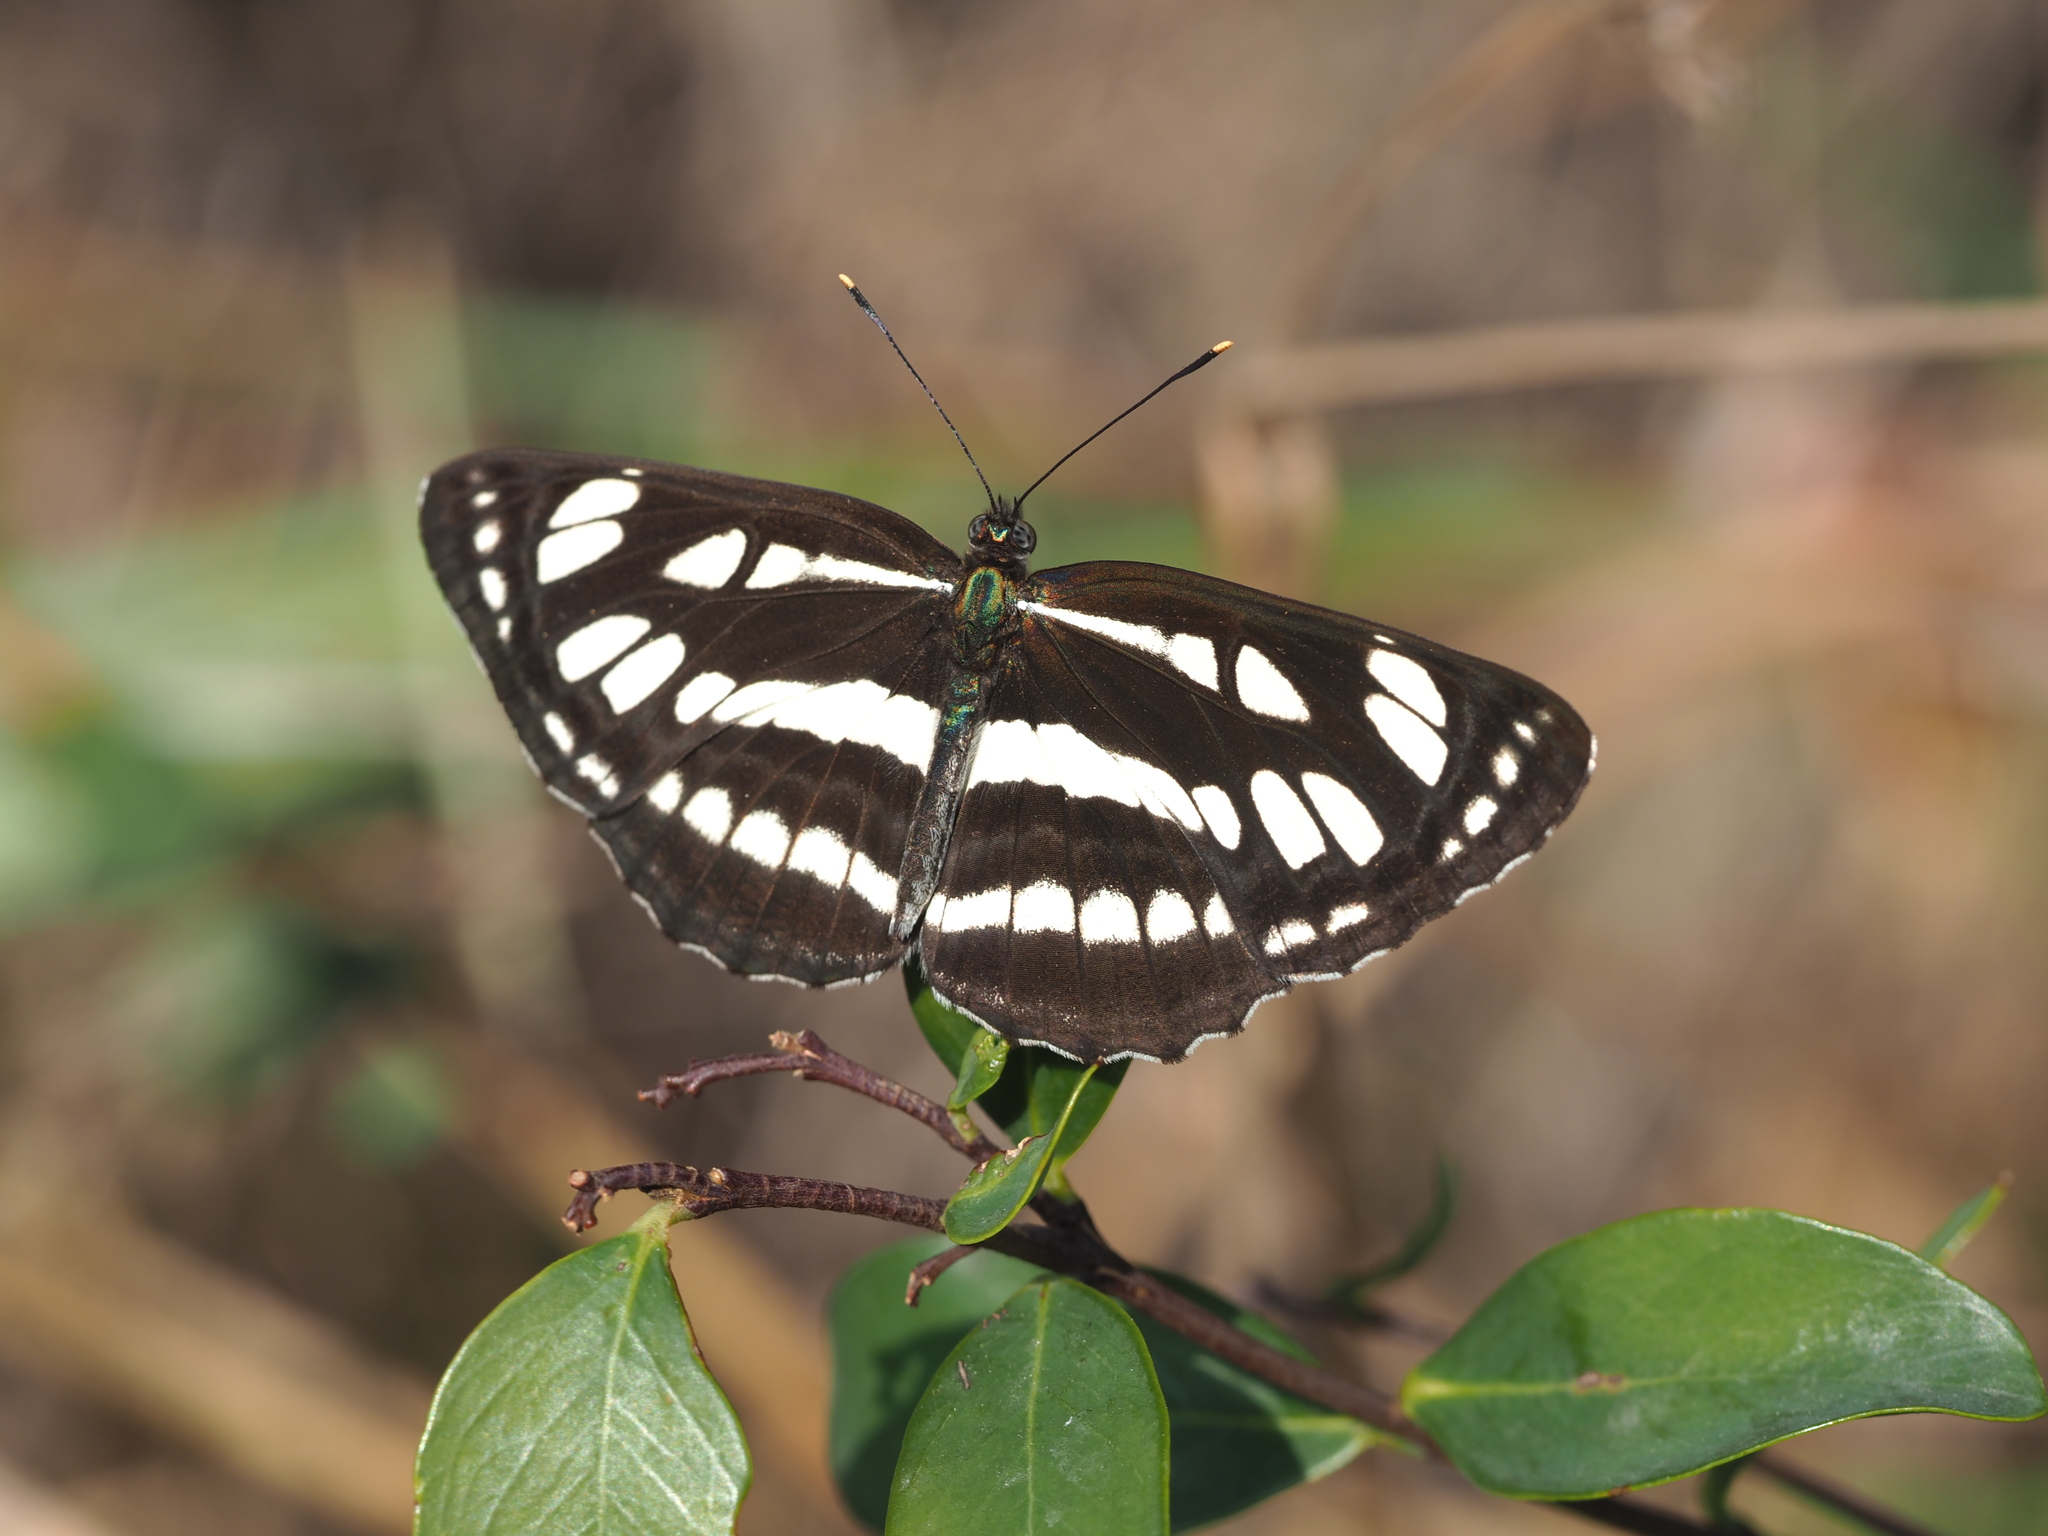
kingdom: Animalia
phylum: Arthropoda
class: Insecta
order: Lepidoptera
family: Nymphalidae
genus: Neptis
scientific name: Neptis hylas
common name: Common sailer
